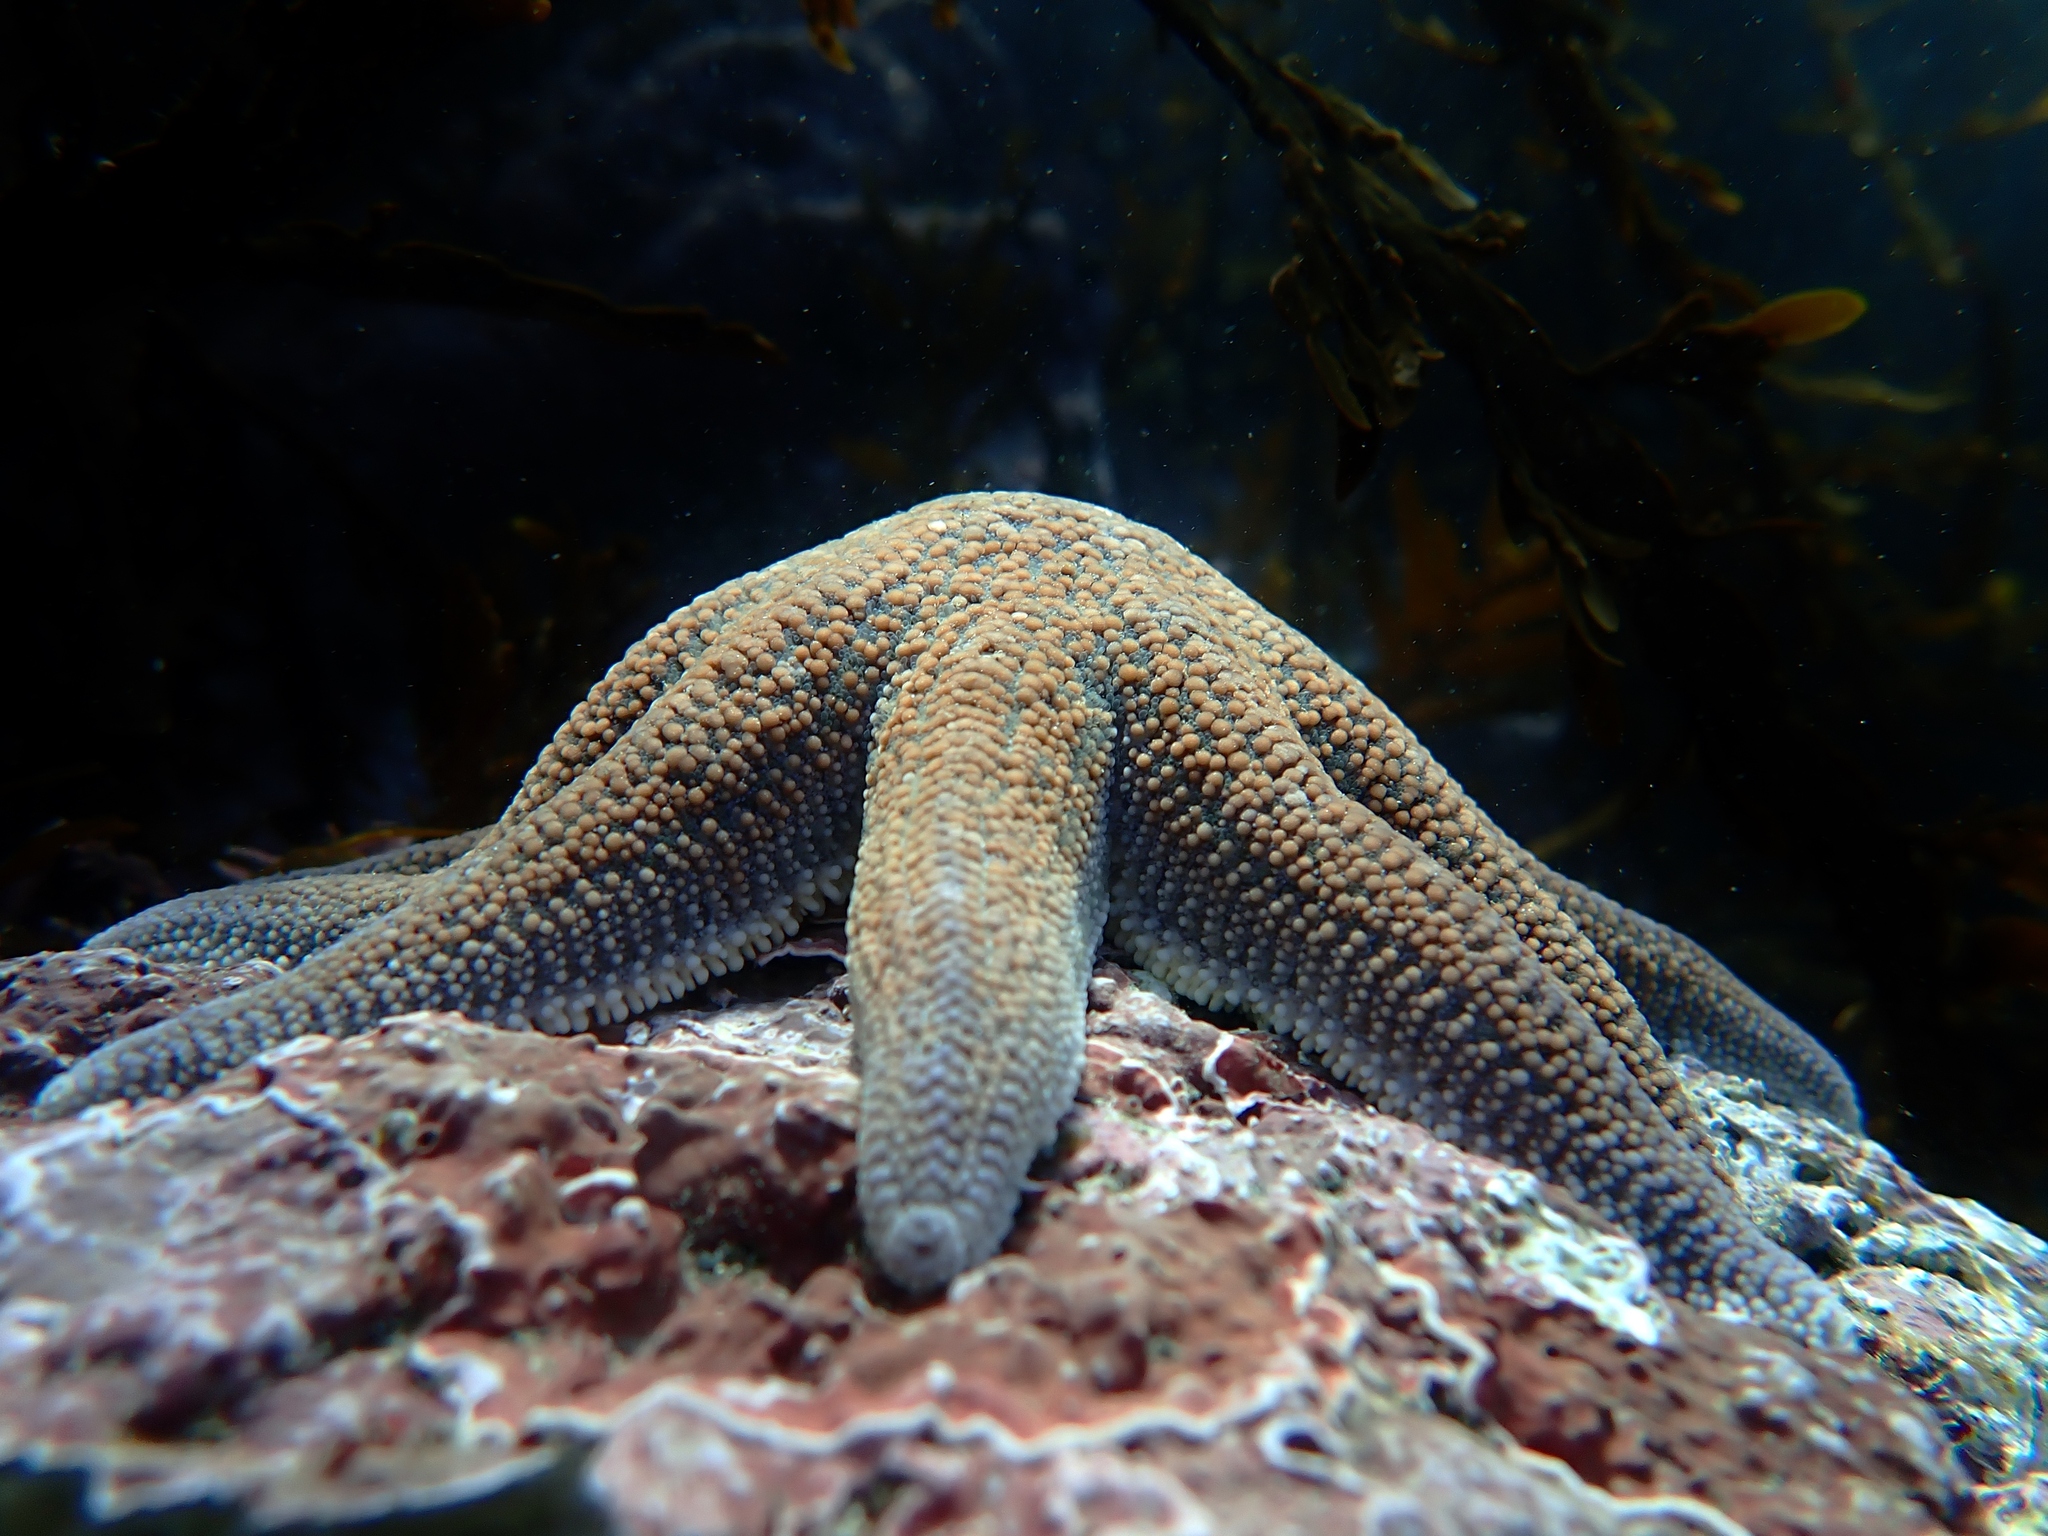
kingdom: Animalia
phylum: Echinodermata
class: Asteroidea
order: Forcipulatida
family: Stichasteridae
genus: Stichaster
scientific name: Stichaster australis
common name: Reef starfish
